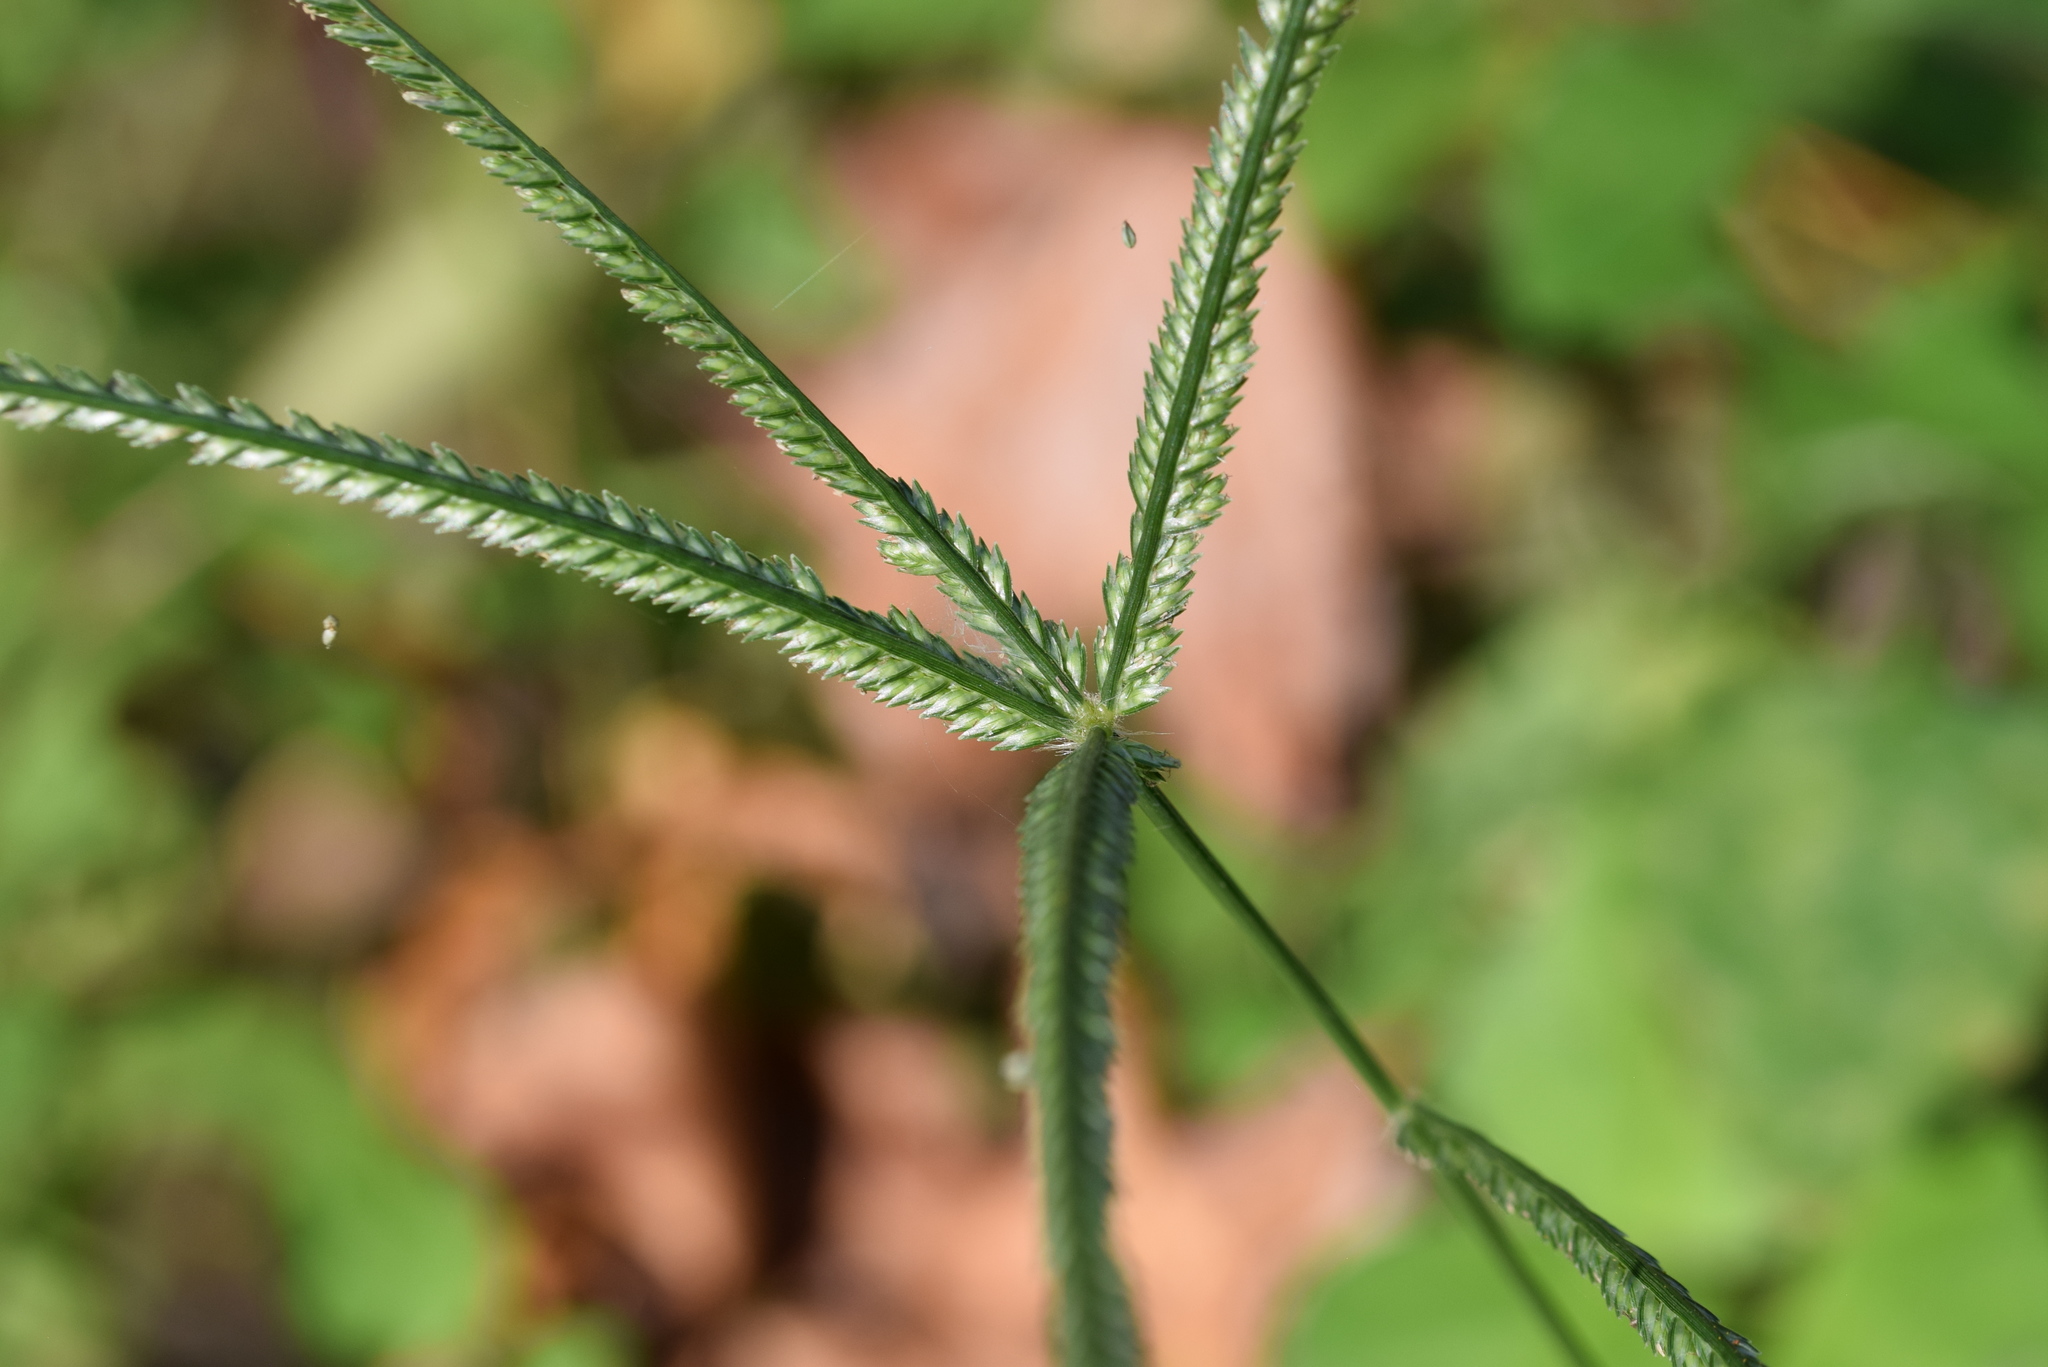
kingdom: Plantae
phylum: Tracheophyta
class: Liliopsida
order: Poales
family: Poaceae
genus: Eleusine
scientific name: Eleusine indica
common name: Yard-grass
